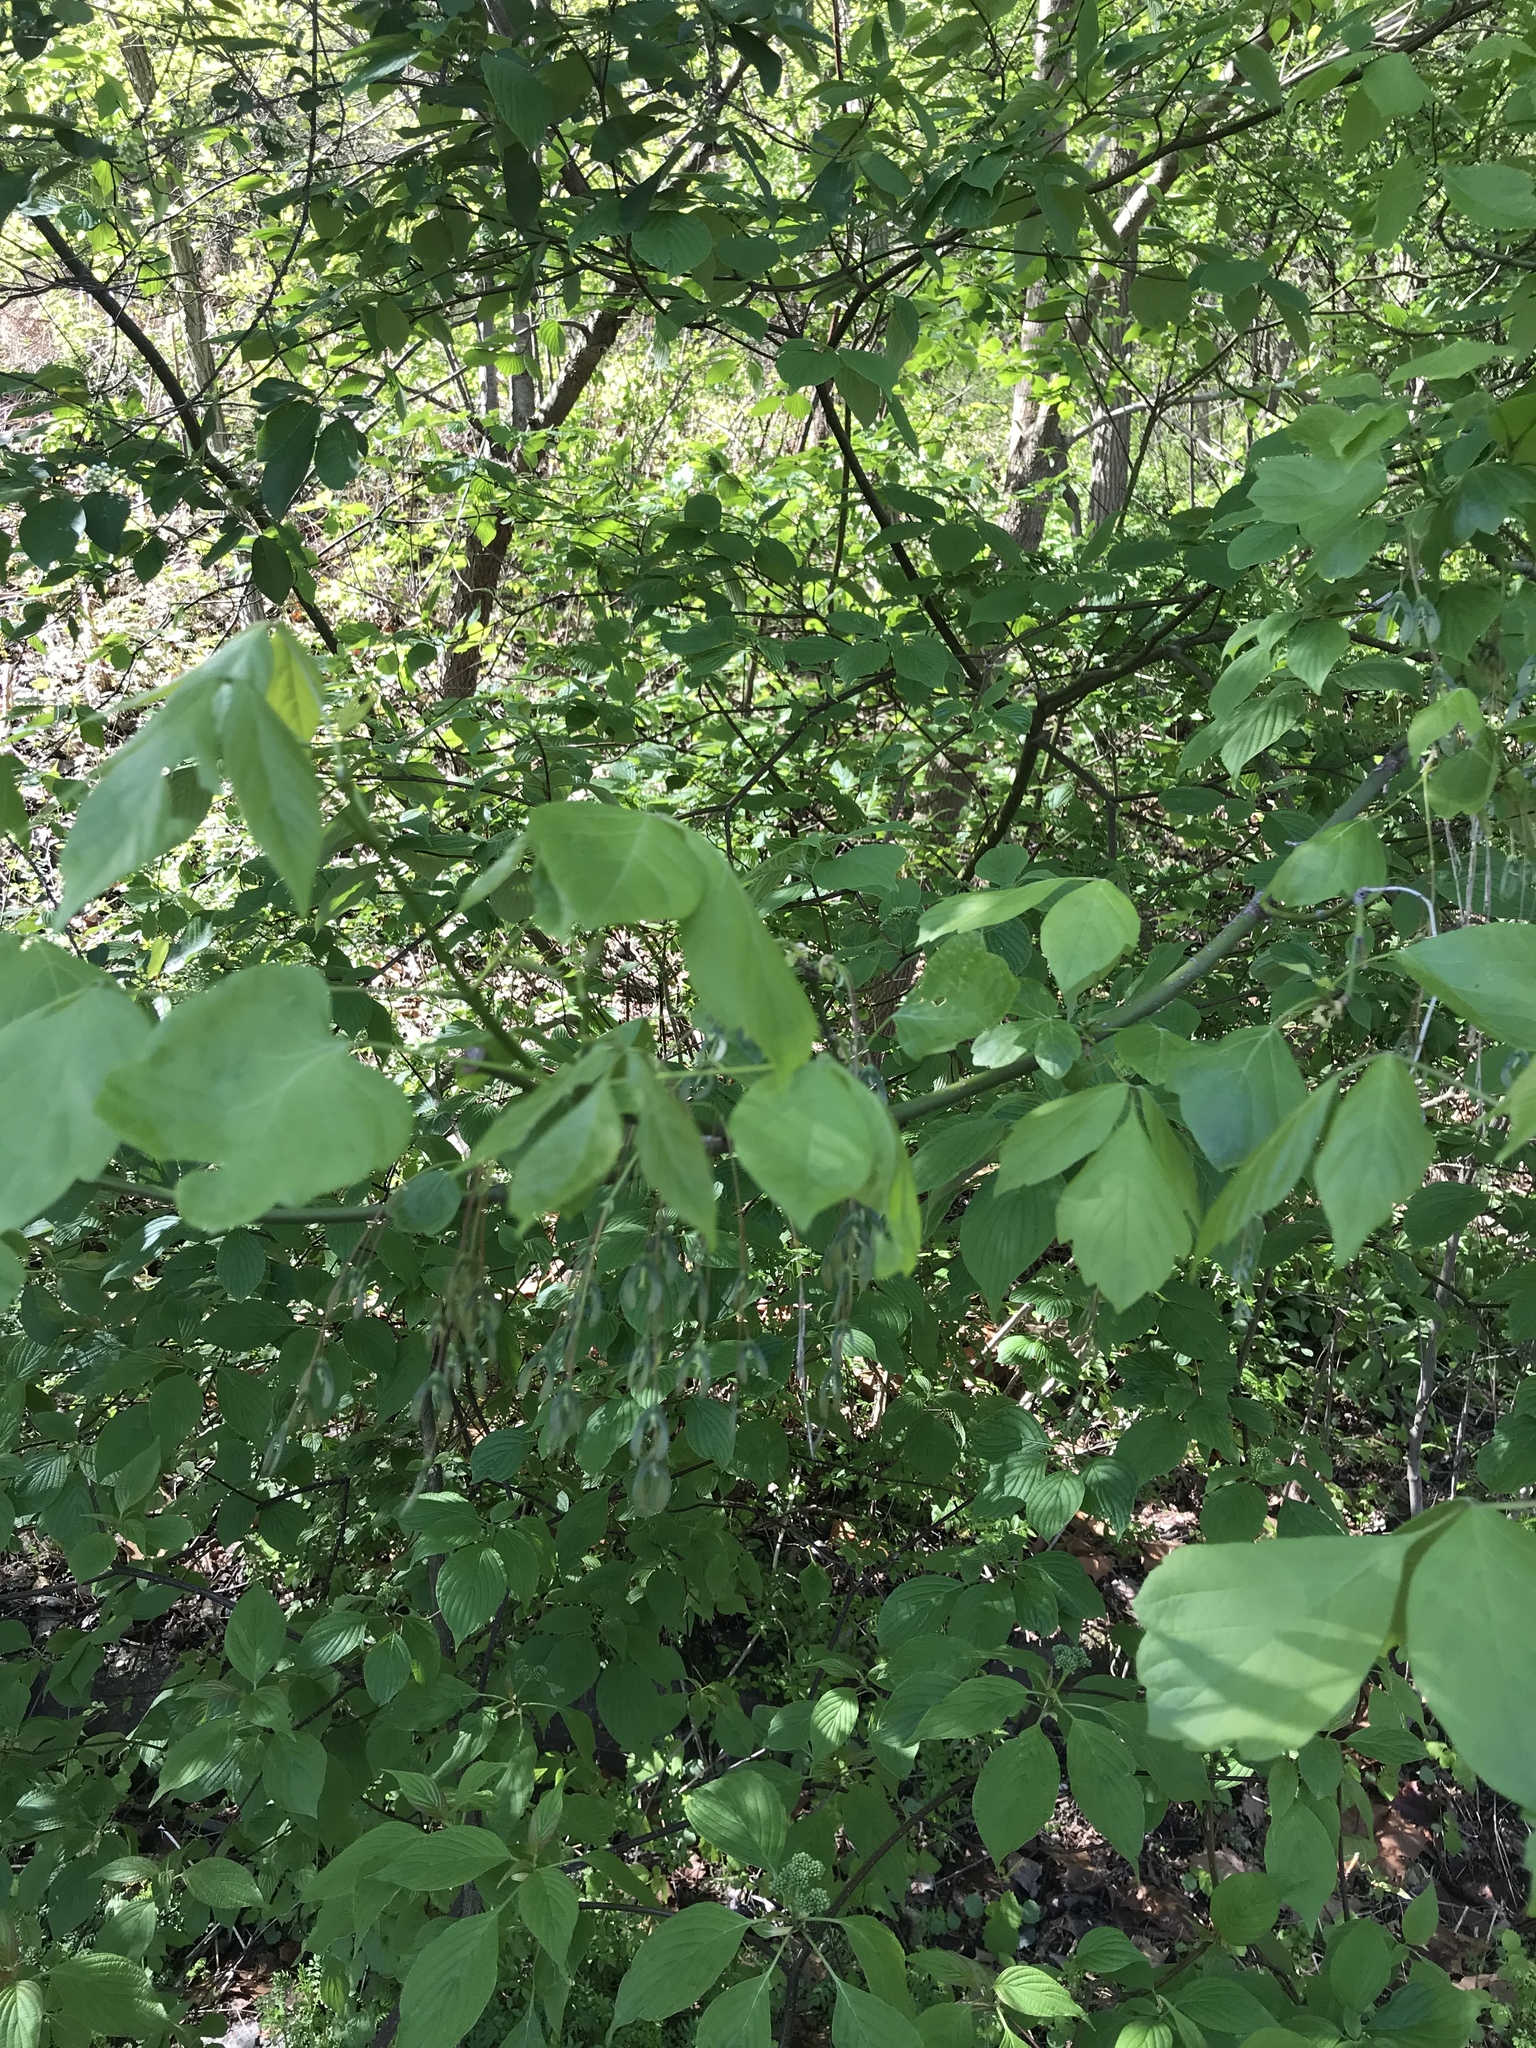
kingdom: Plantae
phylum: Tracheophyta
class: Magnoliopsida
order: Sapindales
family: Sapindaceae
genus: Acer
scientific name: Acer negundo
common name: Ashleaf maple
